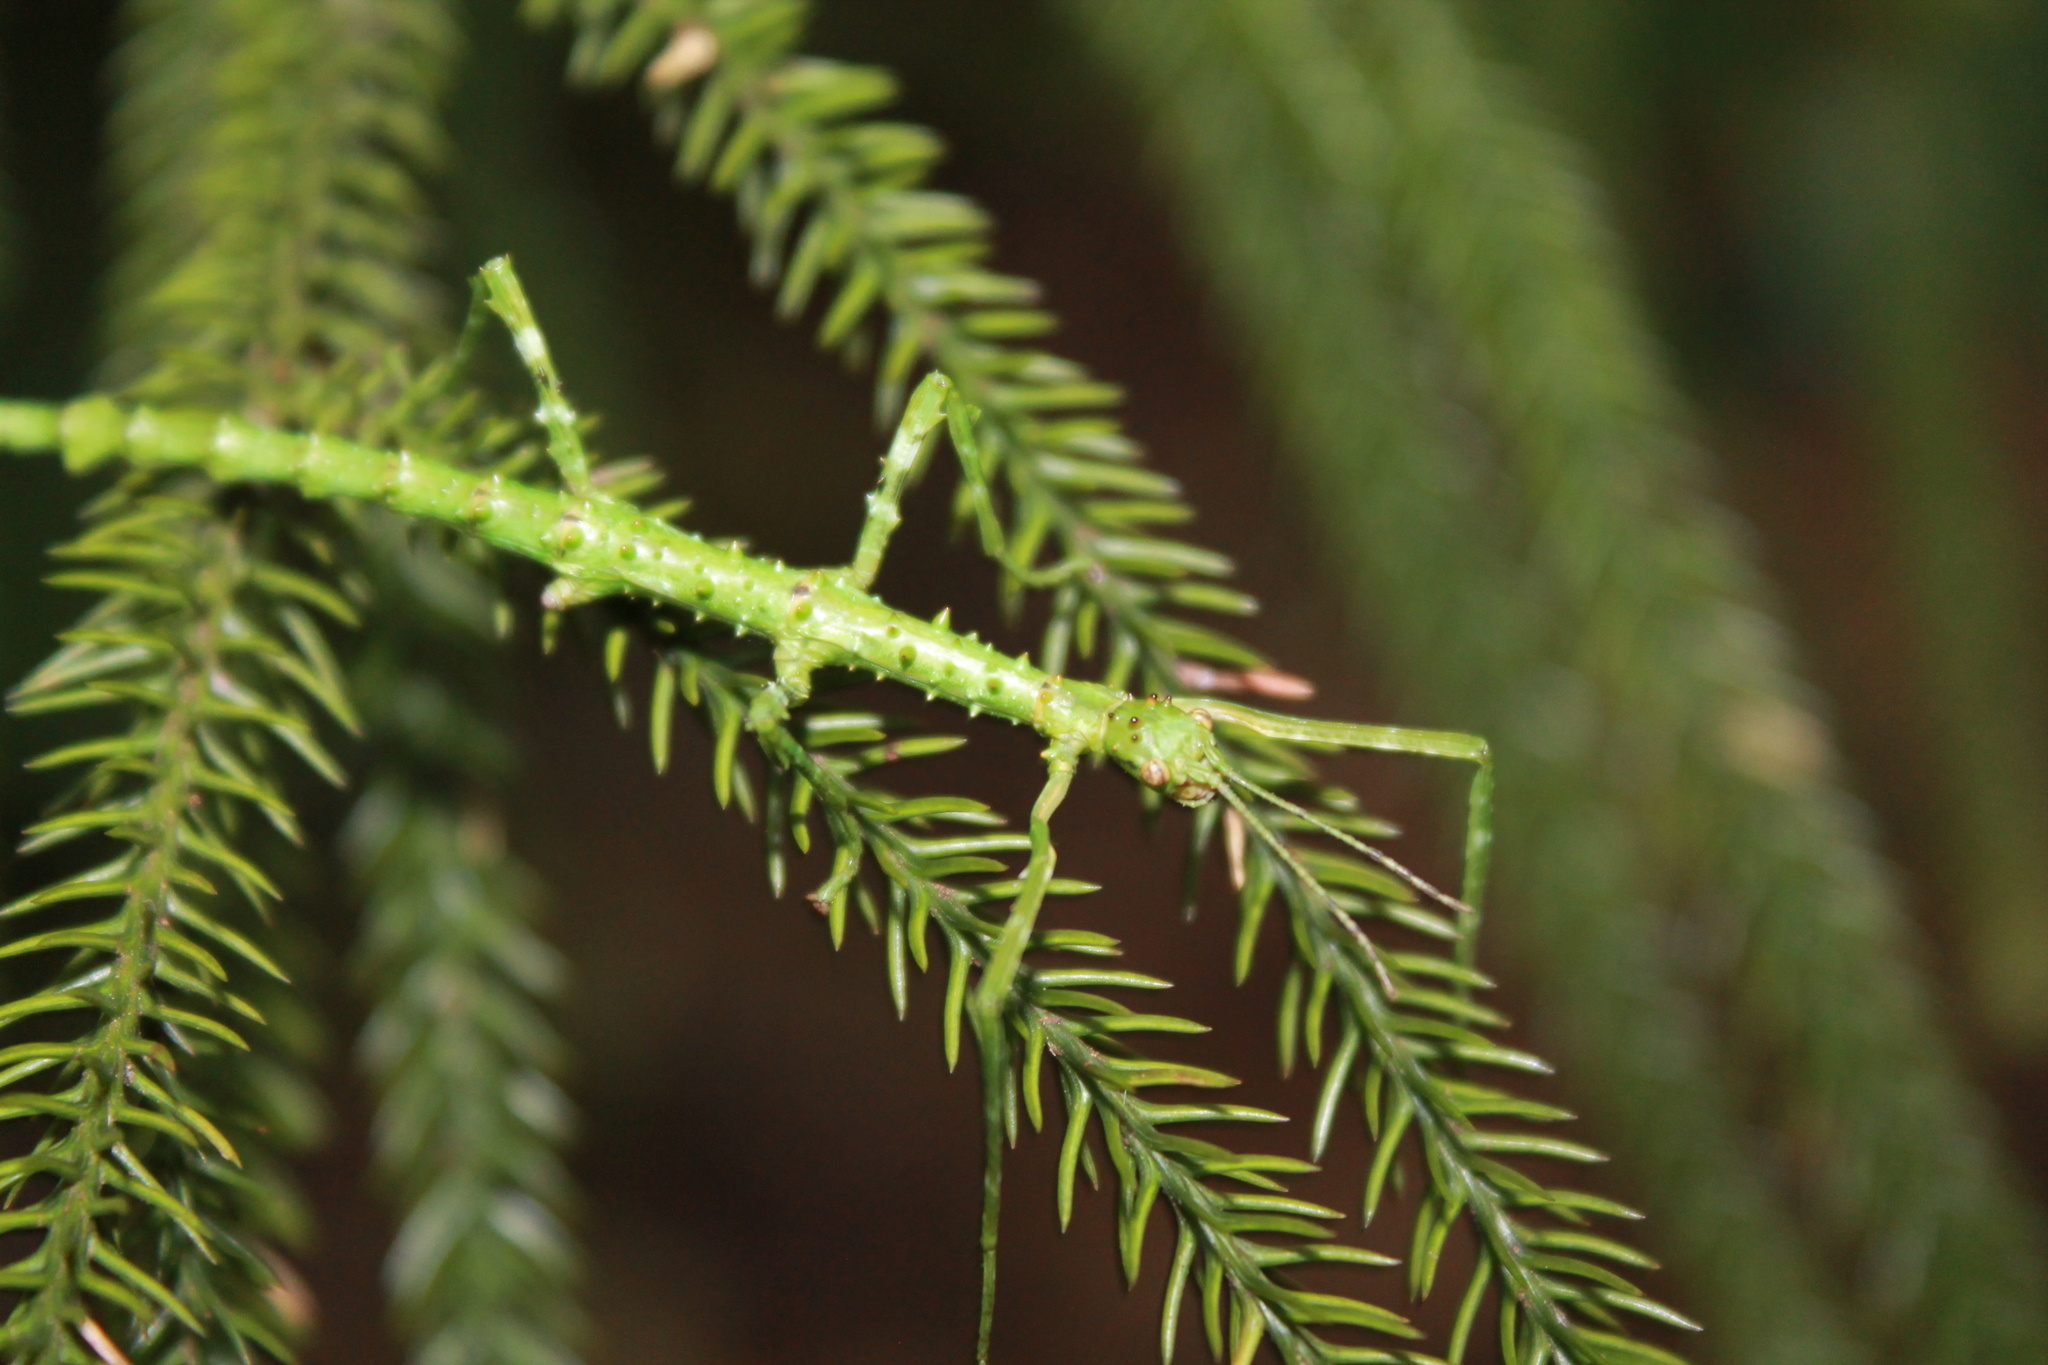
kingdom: Animalia
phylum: Arthropoda
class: Insecta
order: Phasmida
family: Phasmatidae
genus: Acanthoxyla
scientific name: Acanthoxyla prasina
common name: Black-spined stick insect
